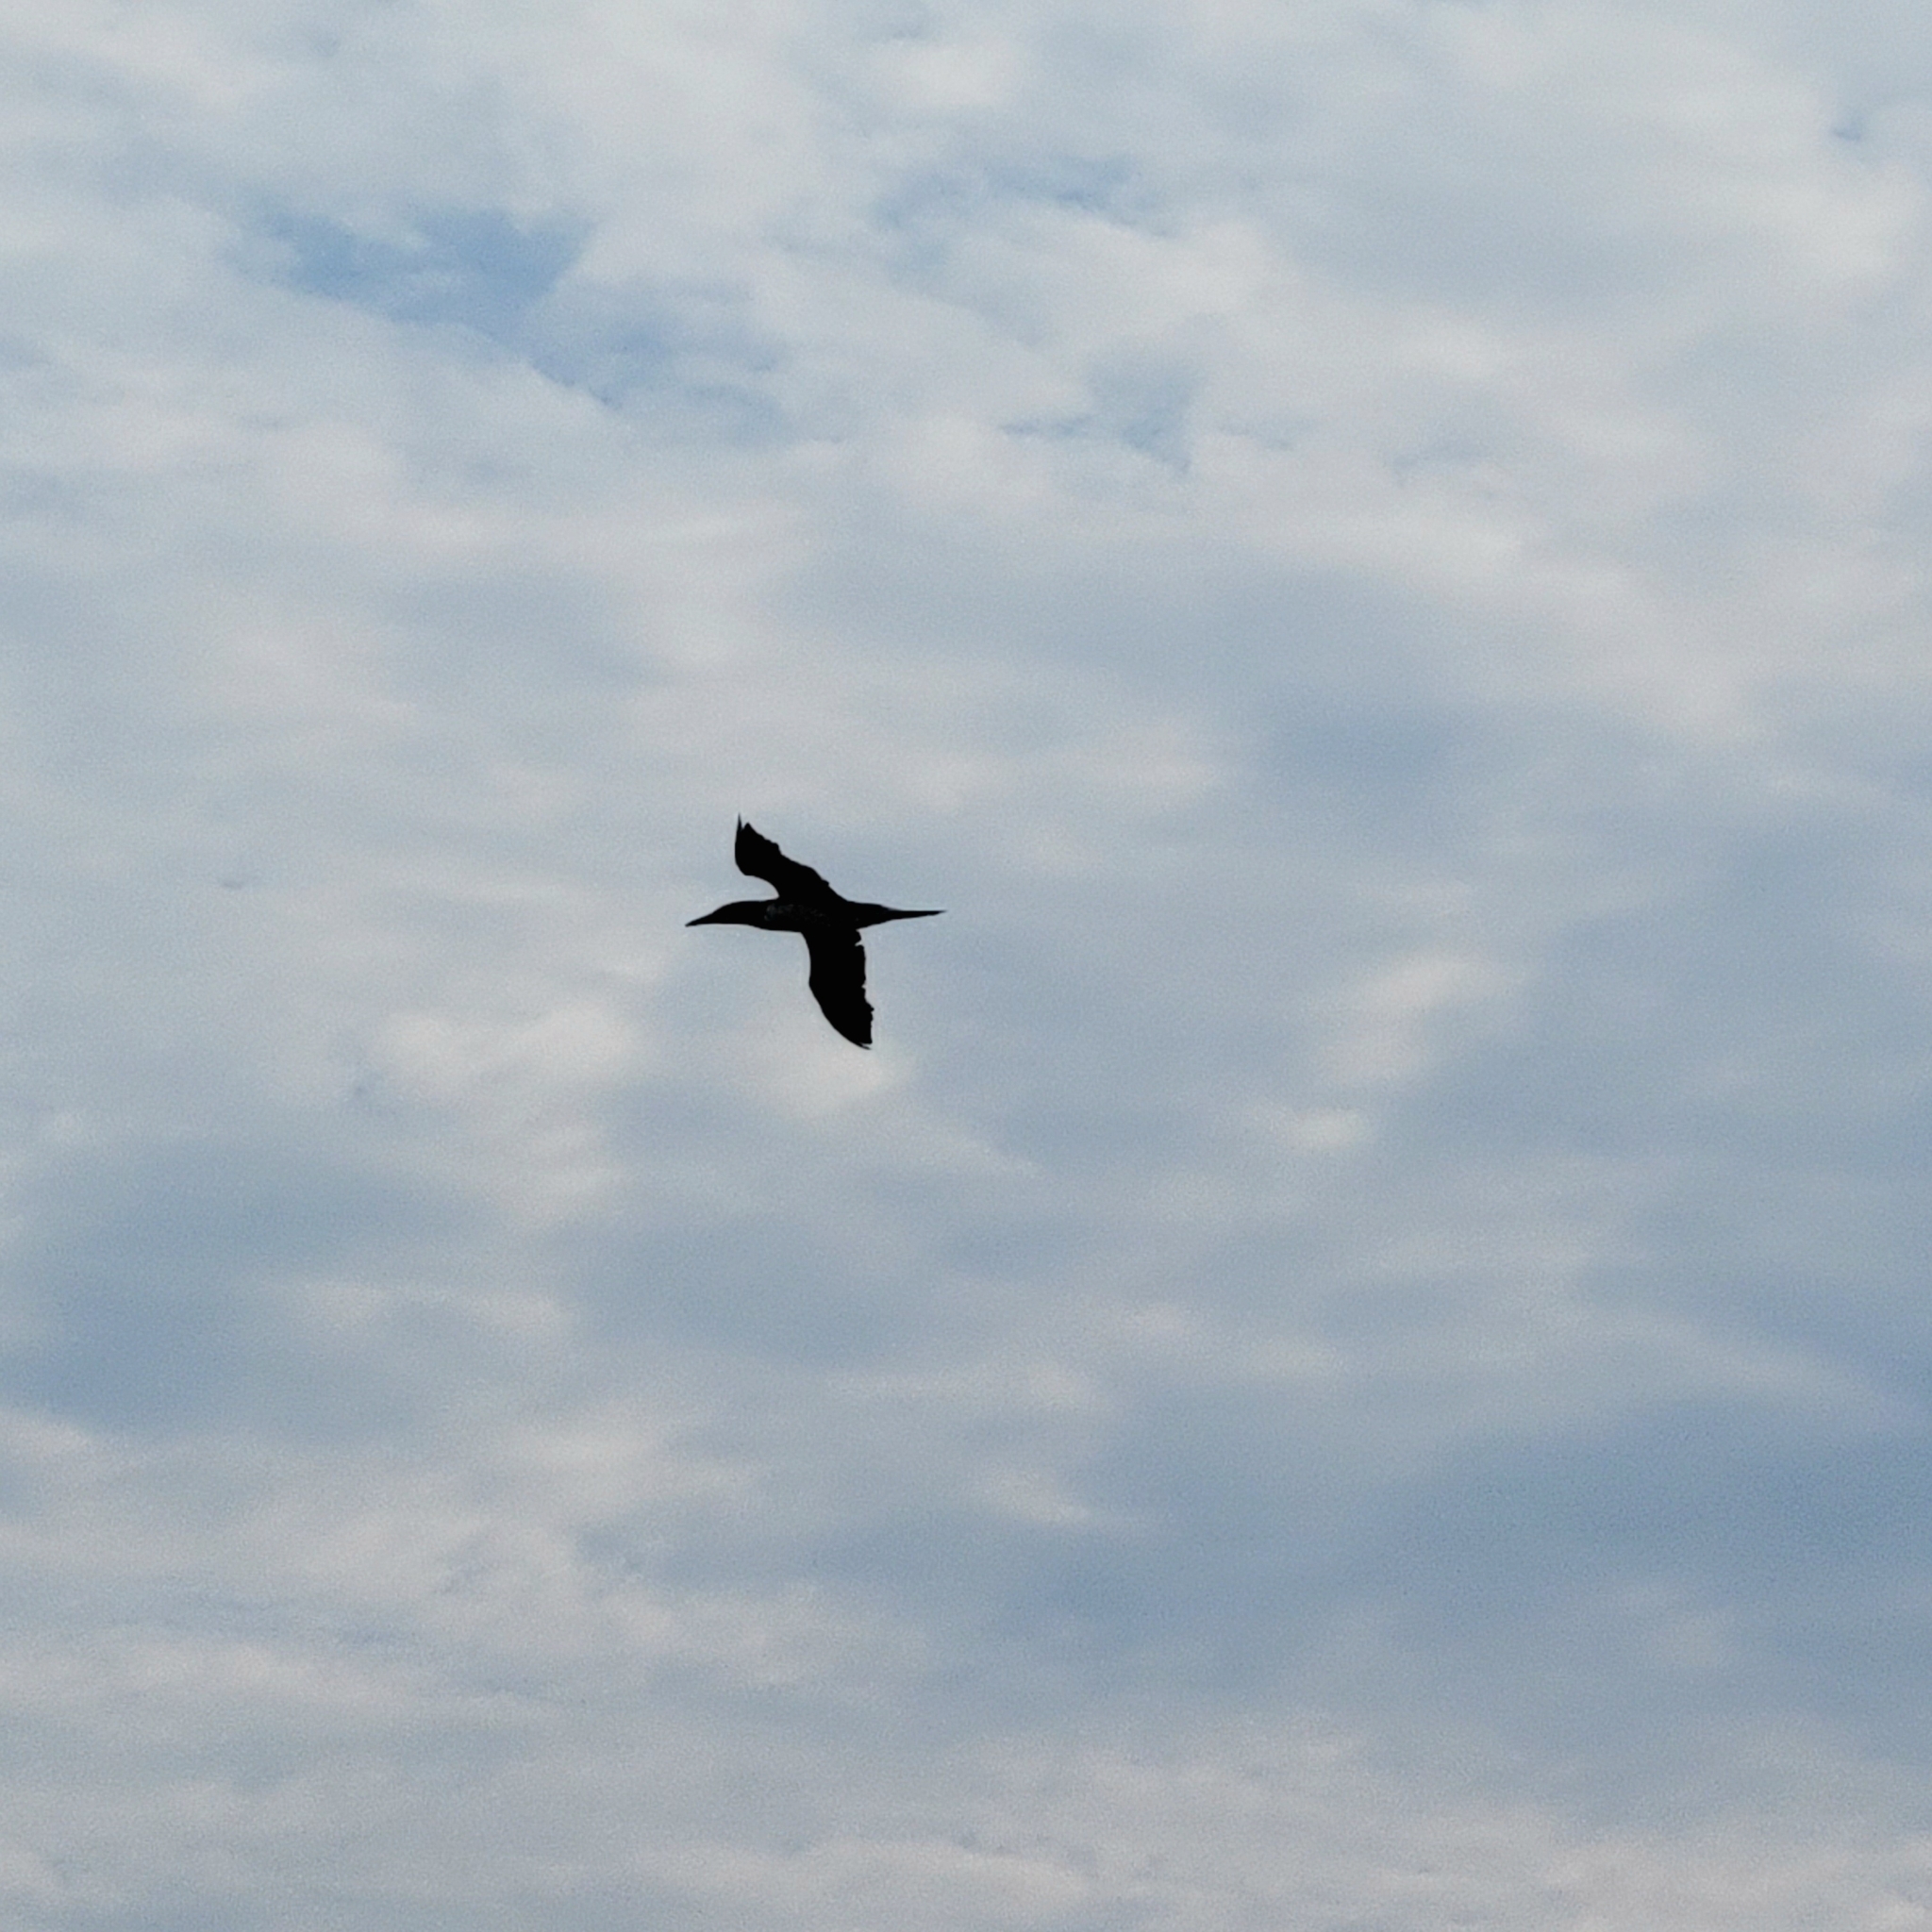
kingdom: Animalia
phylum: Chordata
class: Aves
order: Suliformes
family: Sulidae
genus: Morus
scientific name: Morus bassanus
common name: Northern gannet
